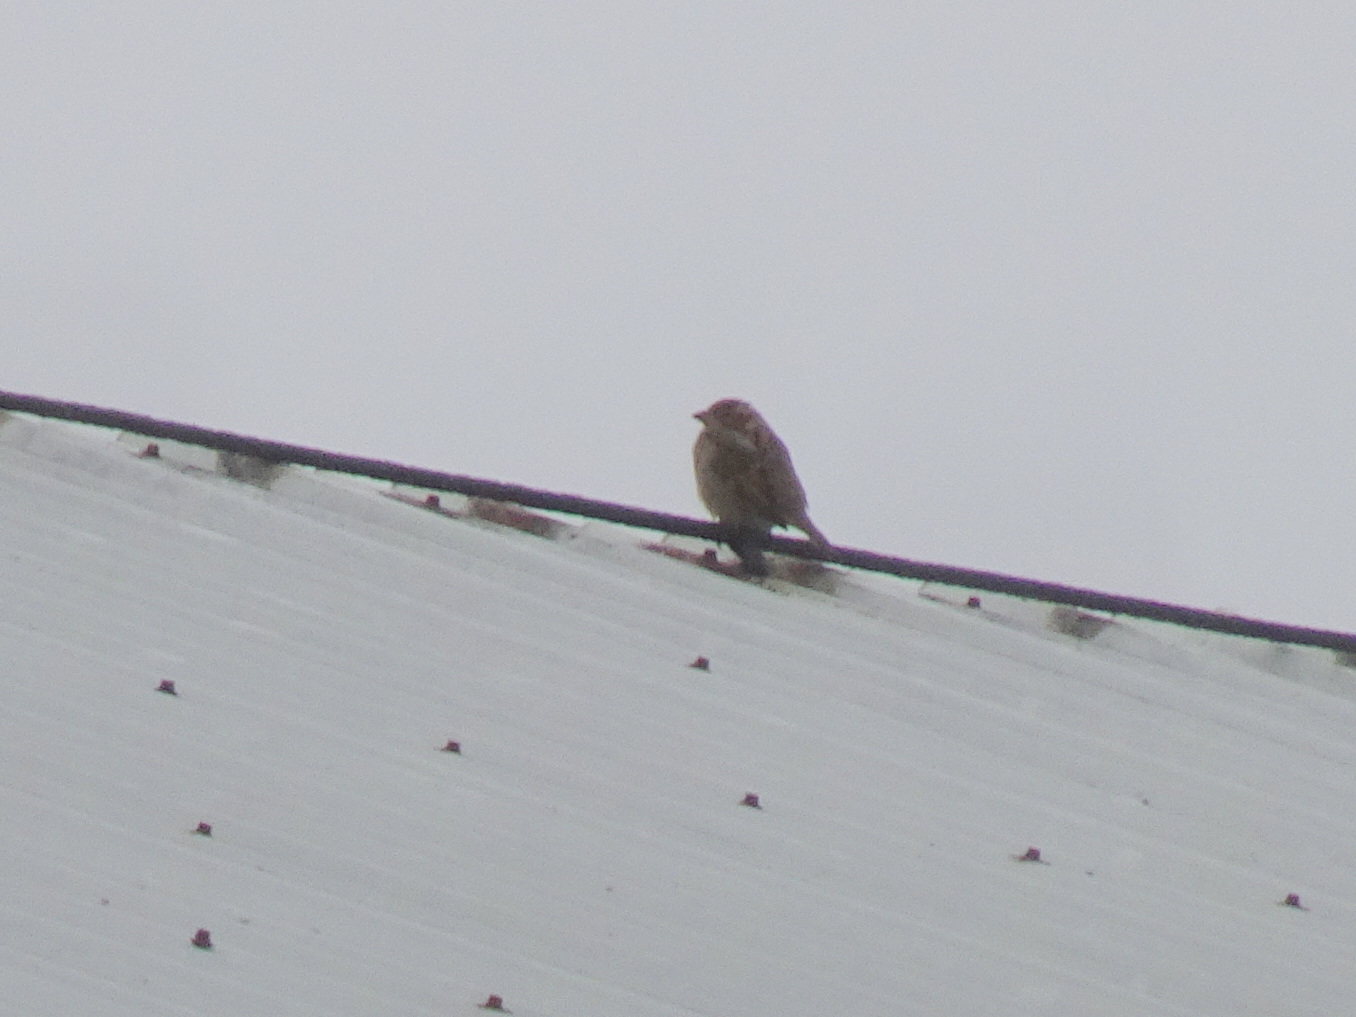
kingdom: Animalia
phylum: Chordata
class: Aves
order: Passeriformes
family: Passeridae
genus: Passer
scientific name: Passer domesticus
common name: House sparrow
